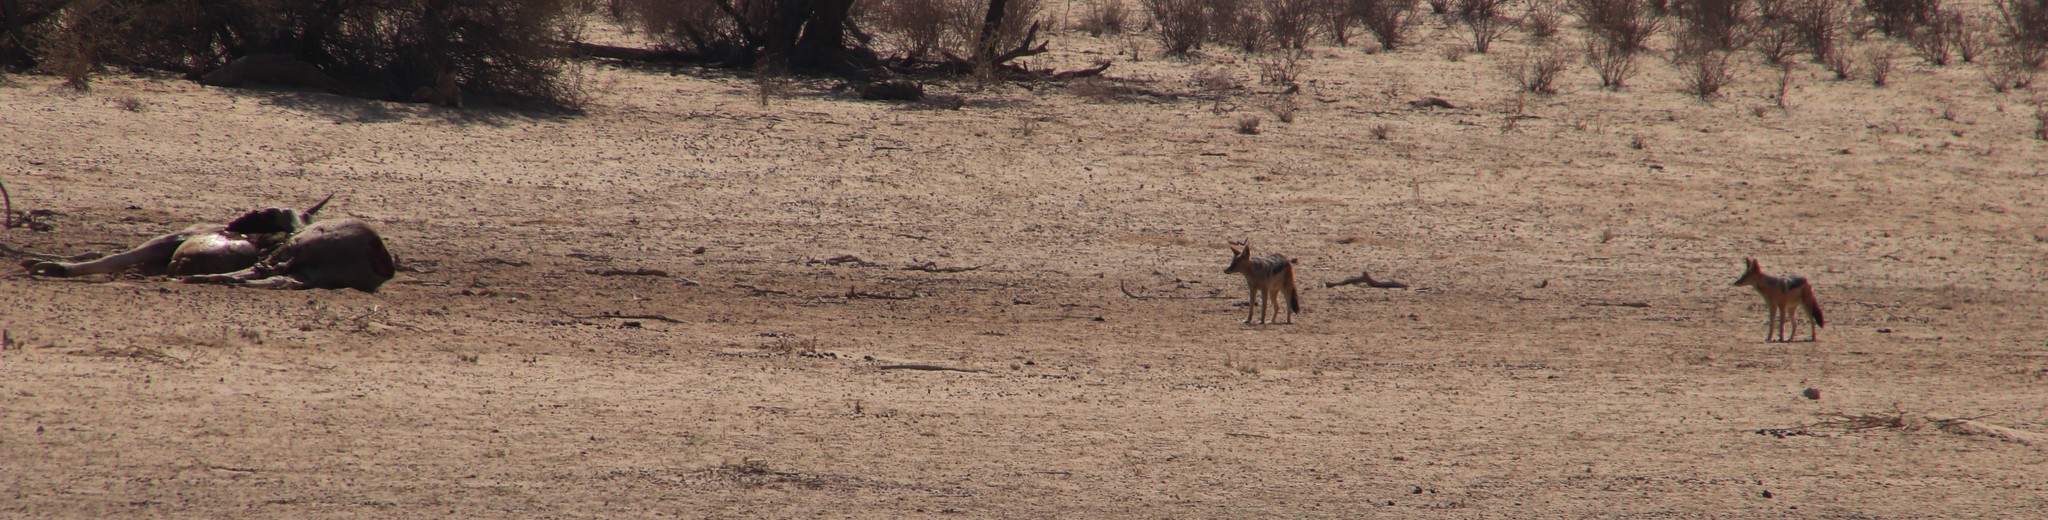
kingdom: Animalia
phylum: Chordata
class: Mammalia
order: Carnivora
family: Canidae
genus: Lupulella
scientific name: Lupulella
